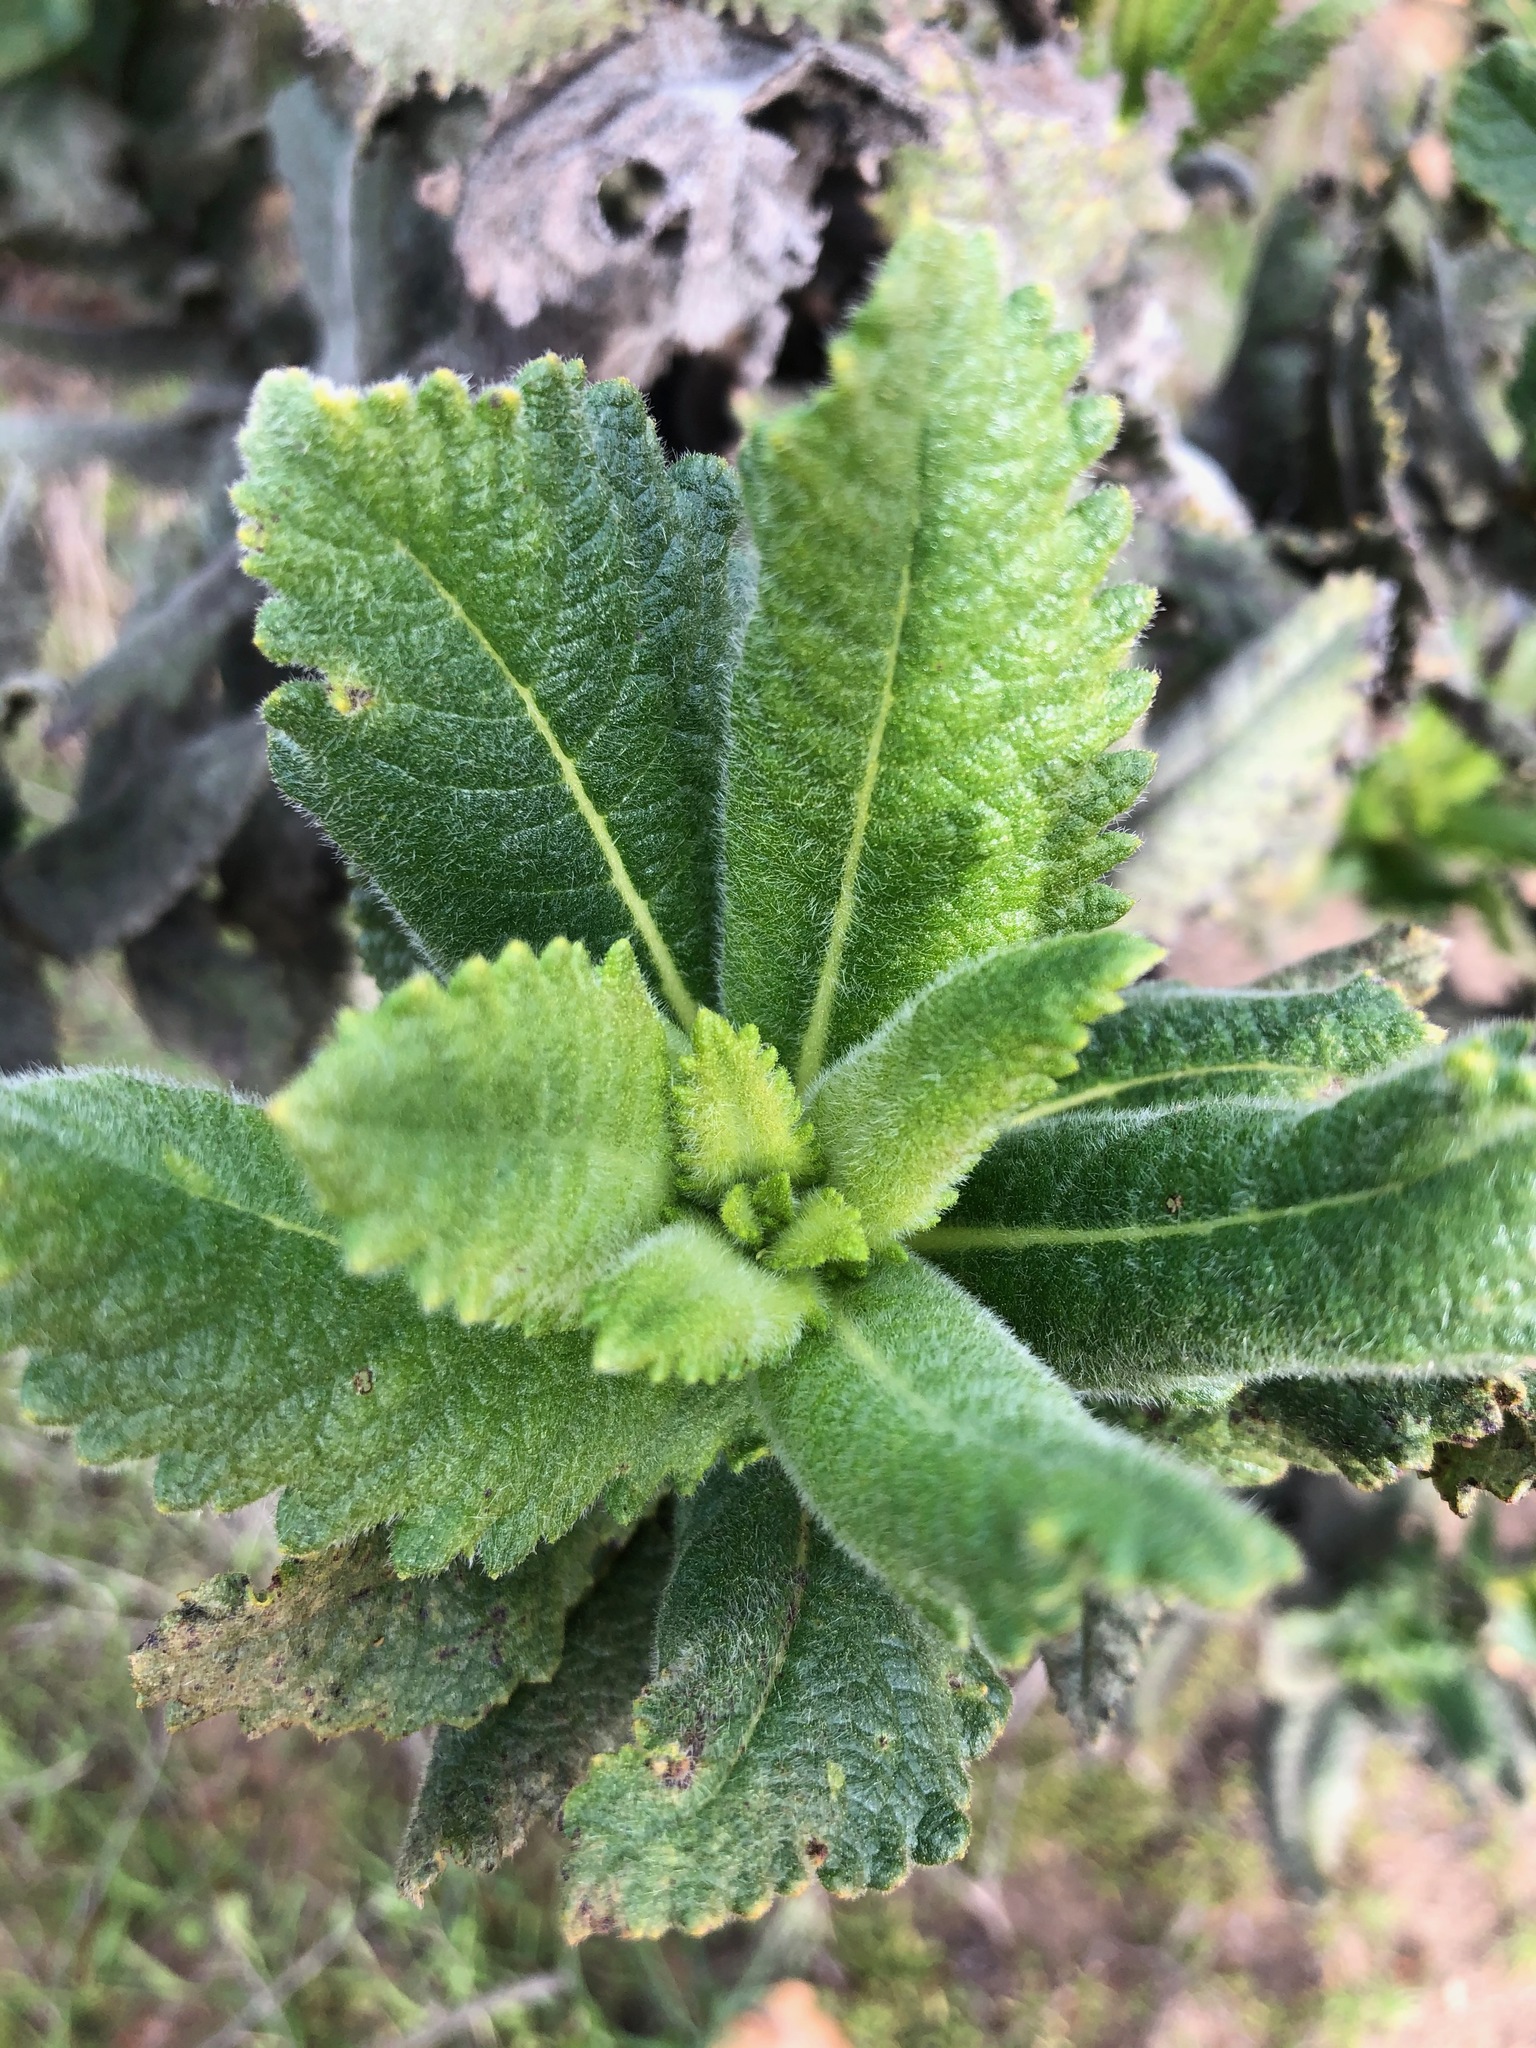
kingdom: Plantae
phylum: Tracheophyta
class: Magnoliopsida
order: Boraginales
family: Namaceae
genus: Eriodictyon
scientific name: Eriodictyon sessilifolium
